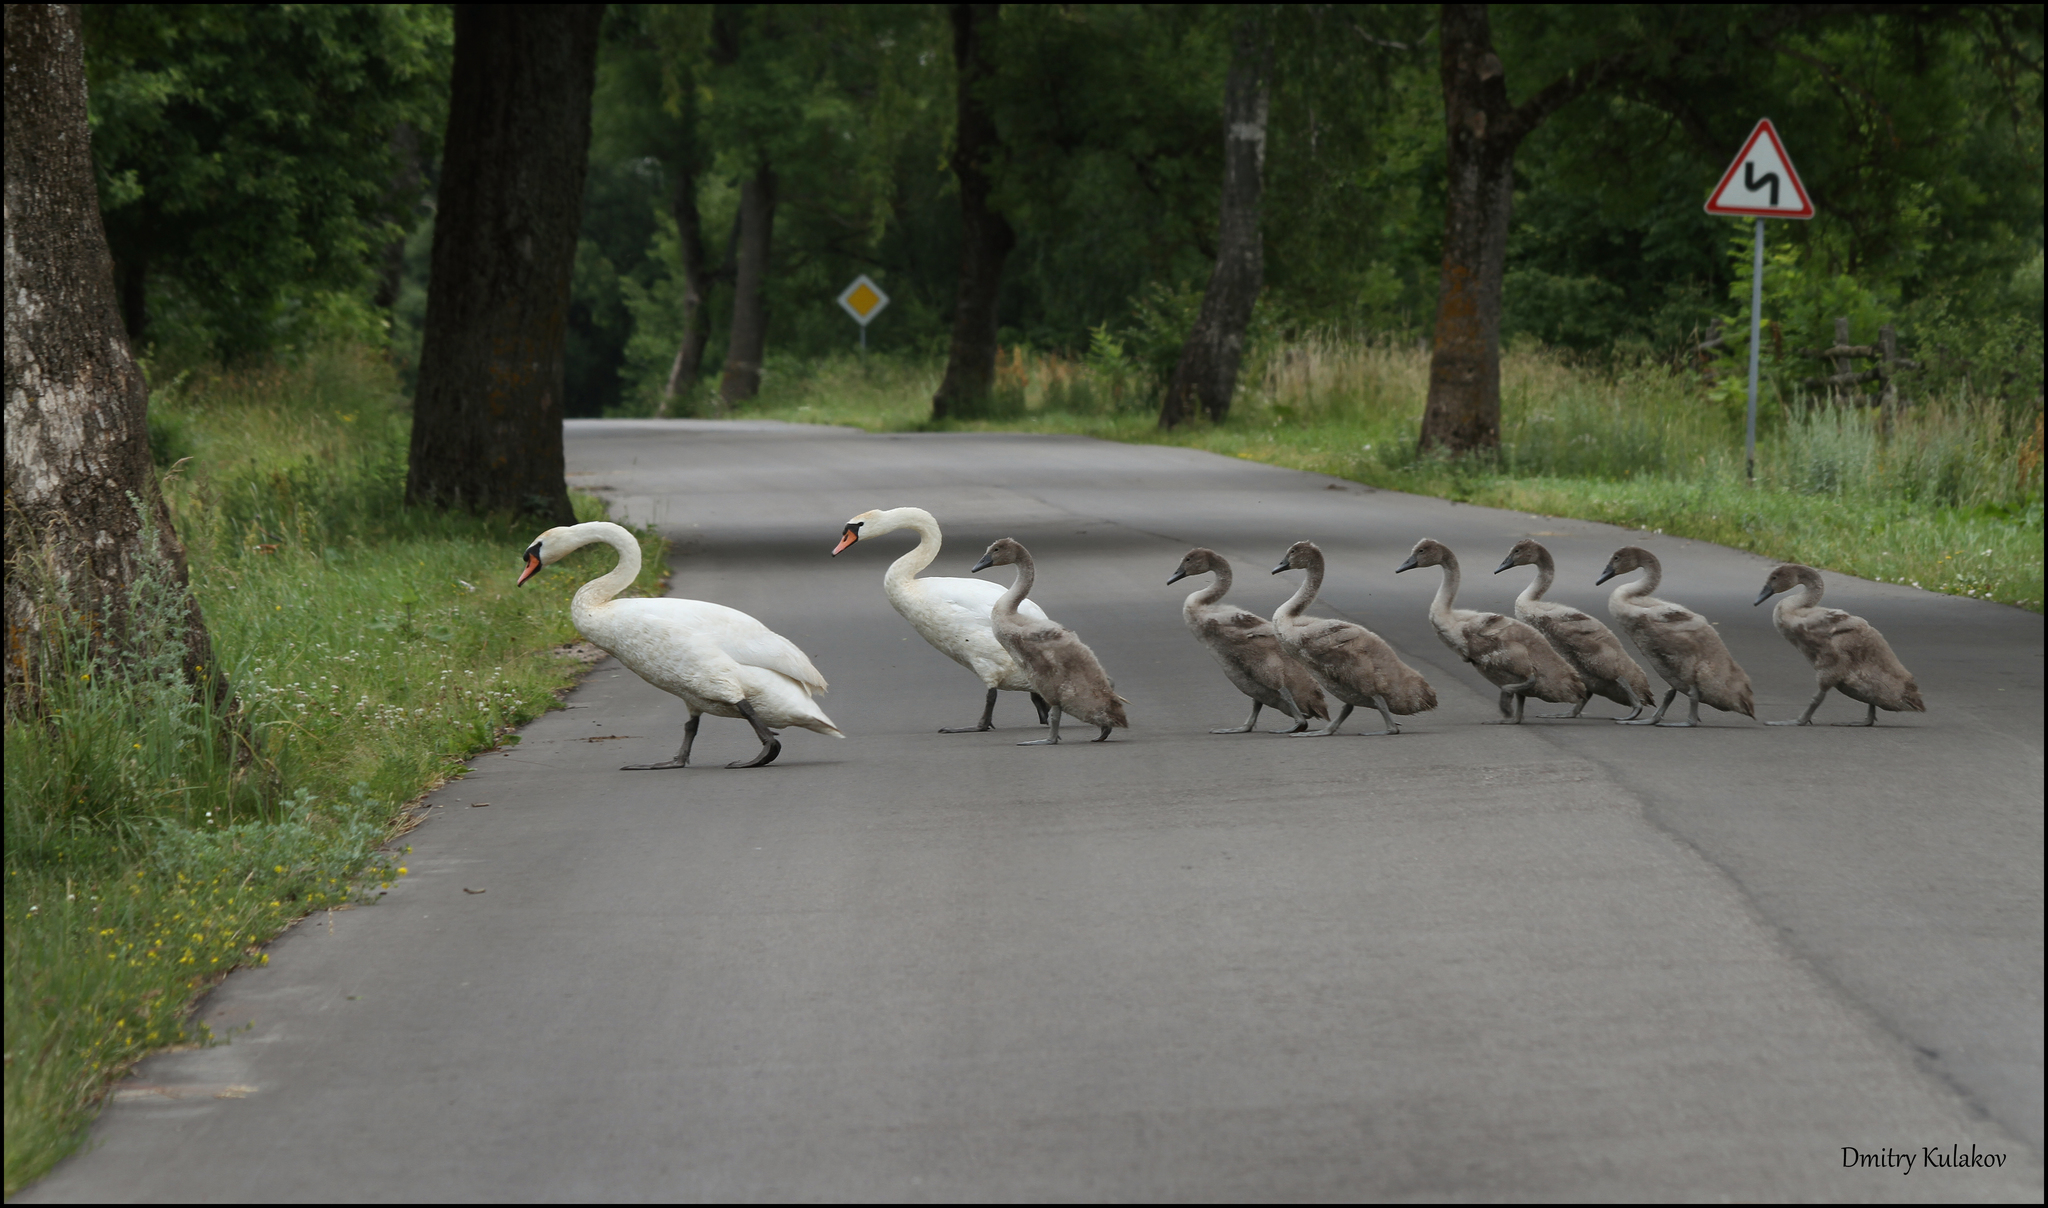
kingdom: Animalia
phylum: Chordata
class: Aves
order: Anseriformes
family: Anatidae
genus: Cygnus
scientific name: Cygnus olor
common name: Mute swan
